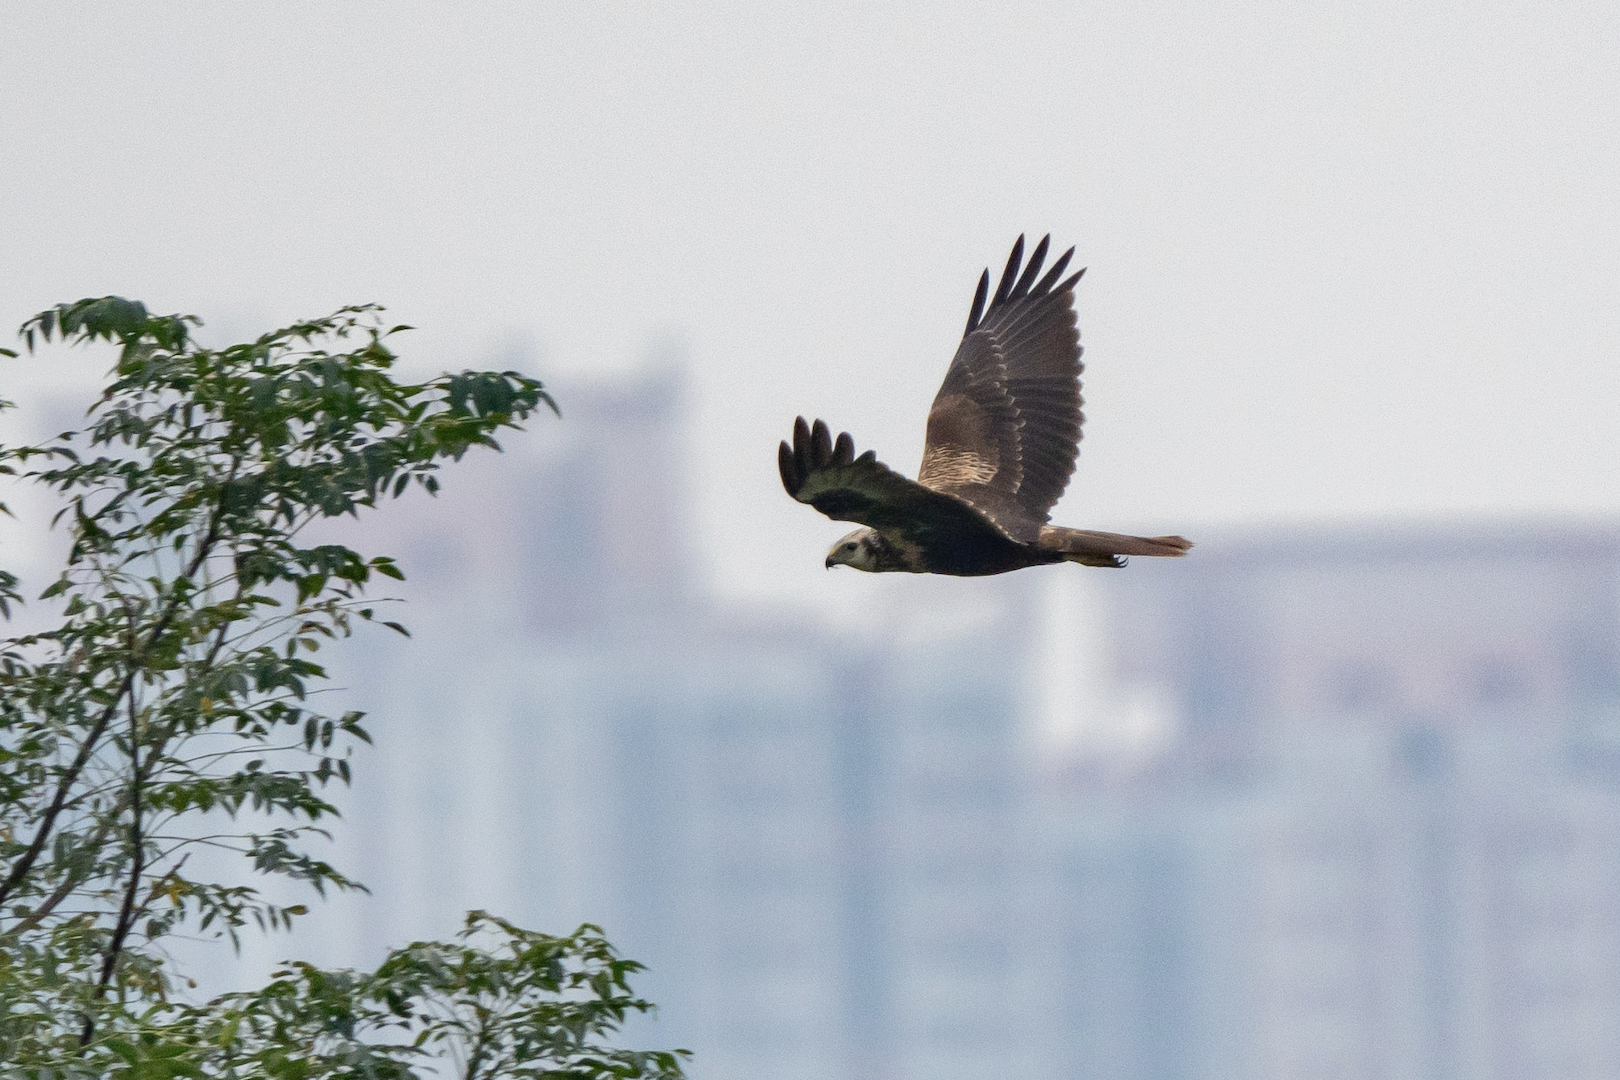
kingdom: Animalia
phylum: Chordata
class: Aves
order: Accipitriformes
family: Accipitridae
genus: Circus
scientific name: Circus spilonotus
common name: Eastern marsh-harrier
